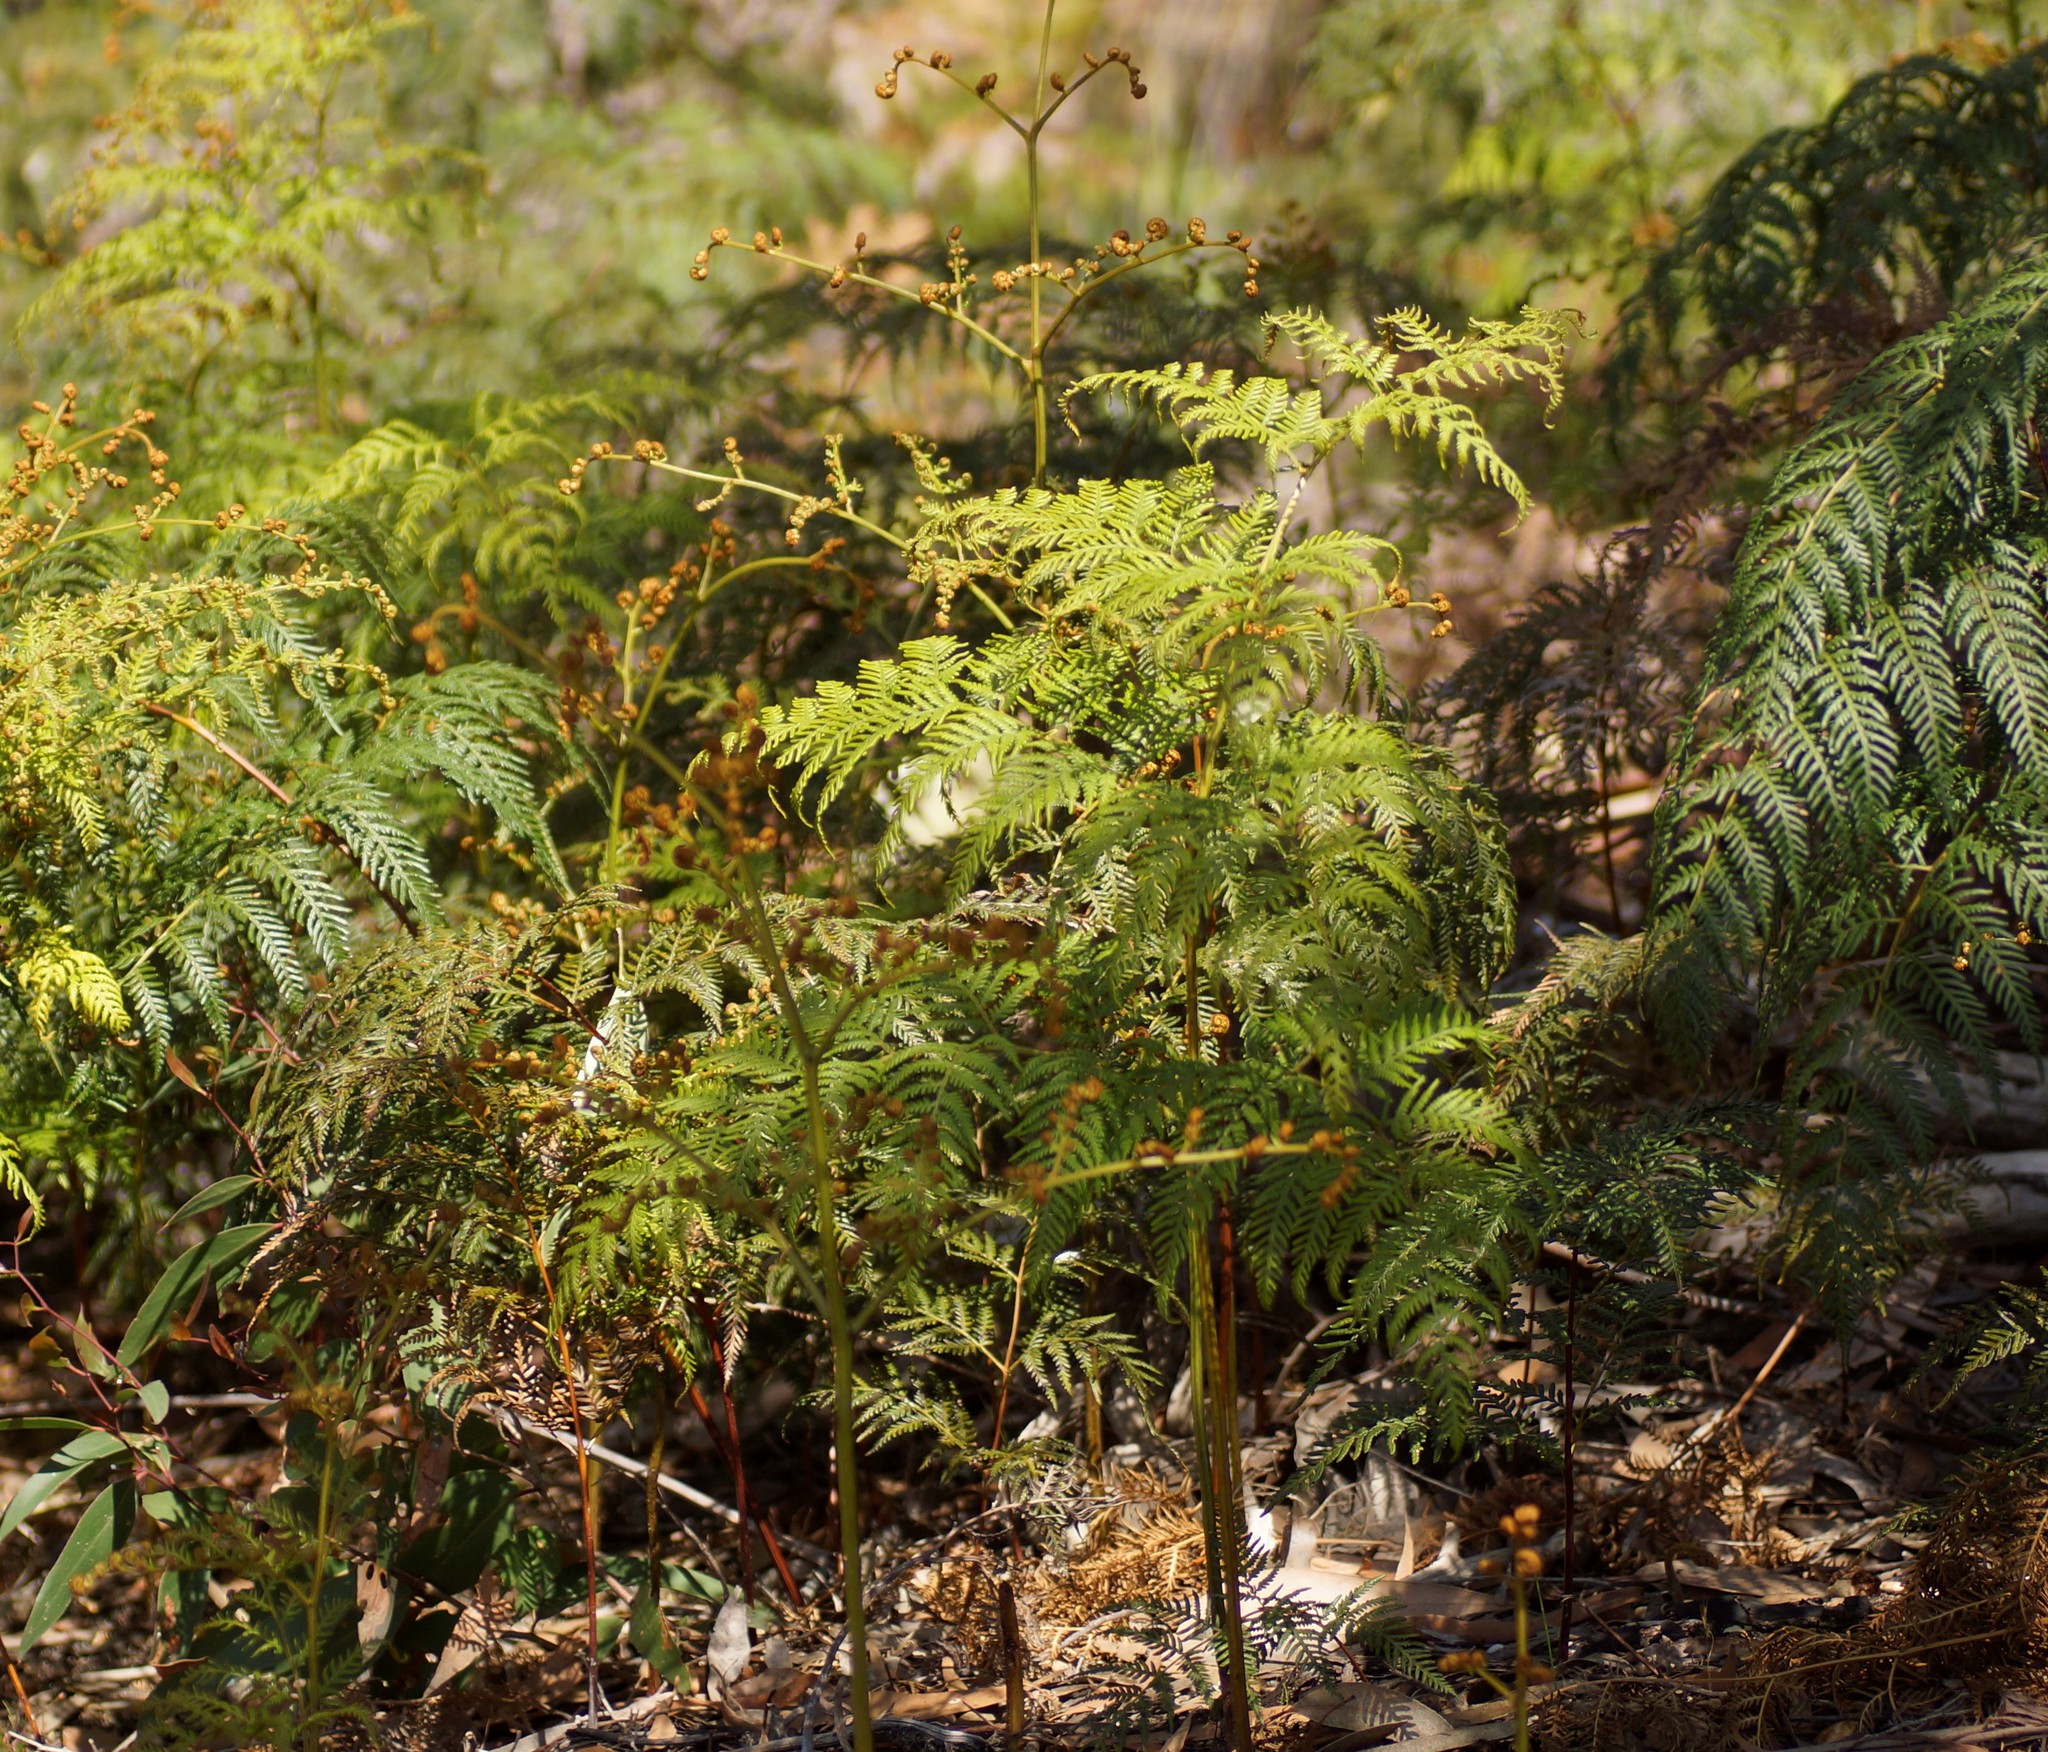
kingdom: Plantae
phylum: Tracheophyta
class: Polypodiopsida
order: Polypodiales
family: Dennstaedtiaceae
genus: Pteridium
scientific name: Pteridium esculentum
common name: Bracken fern
